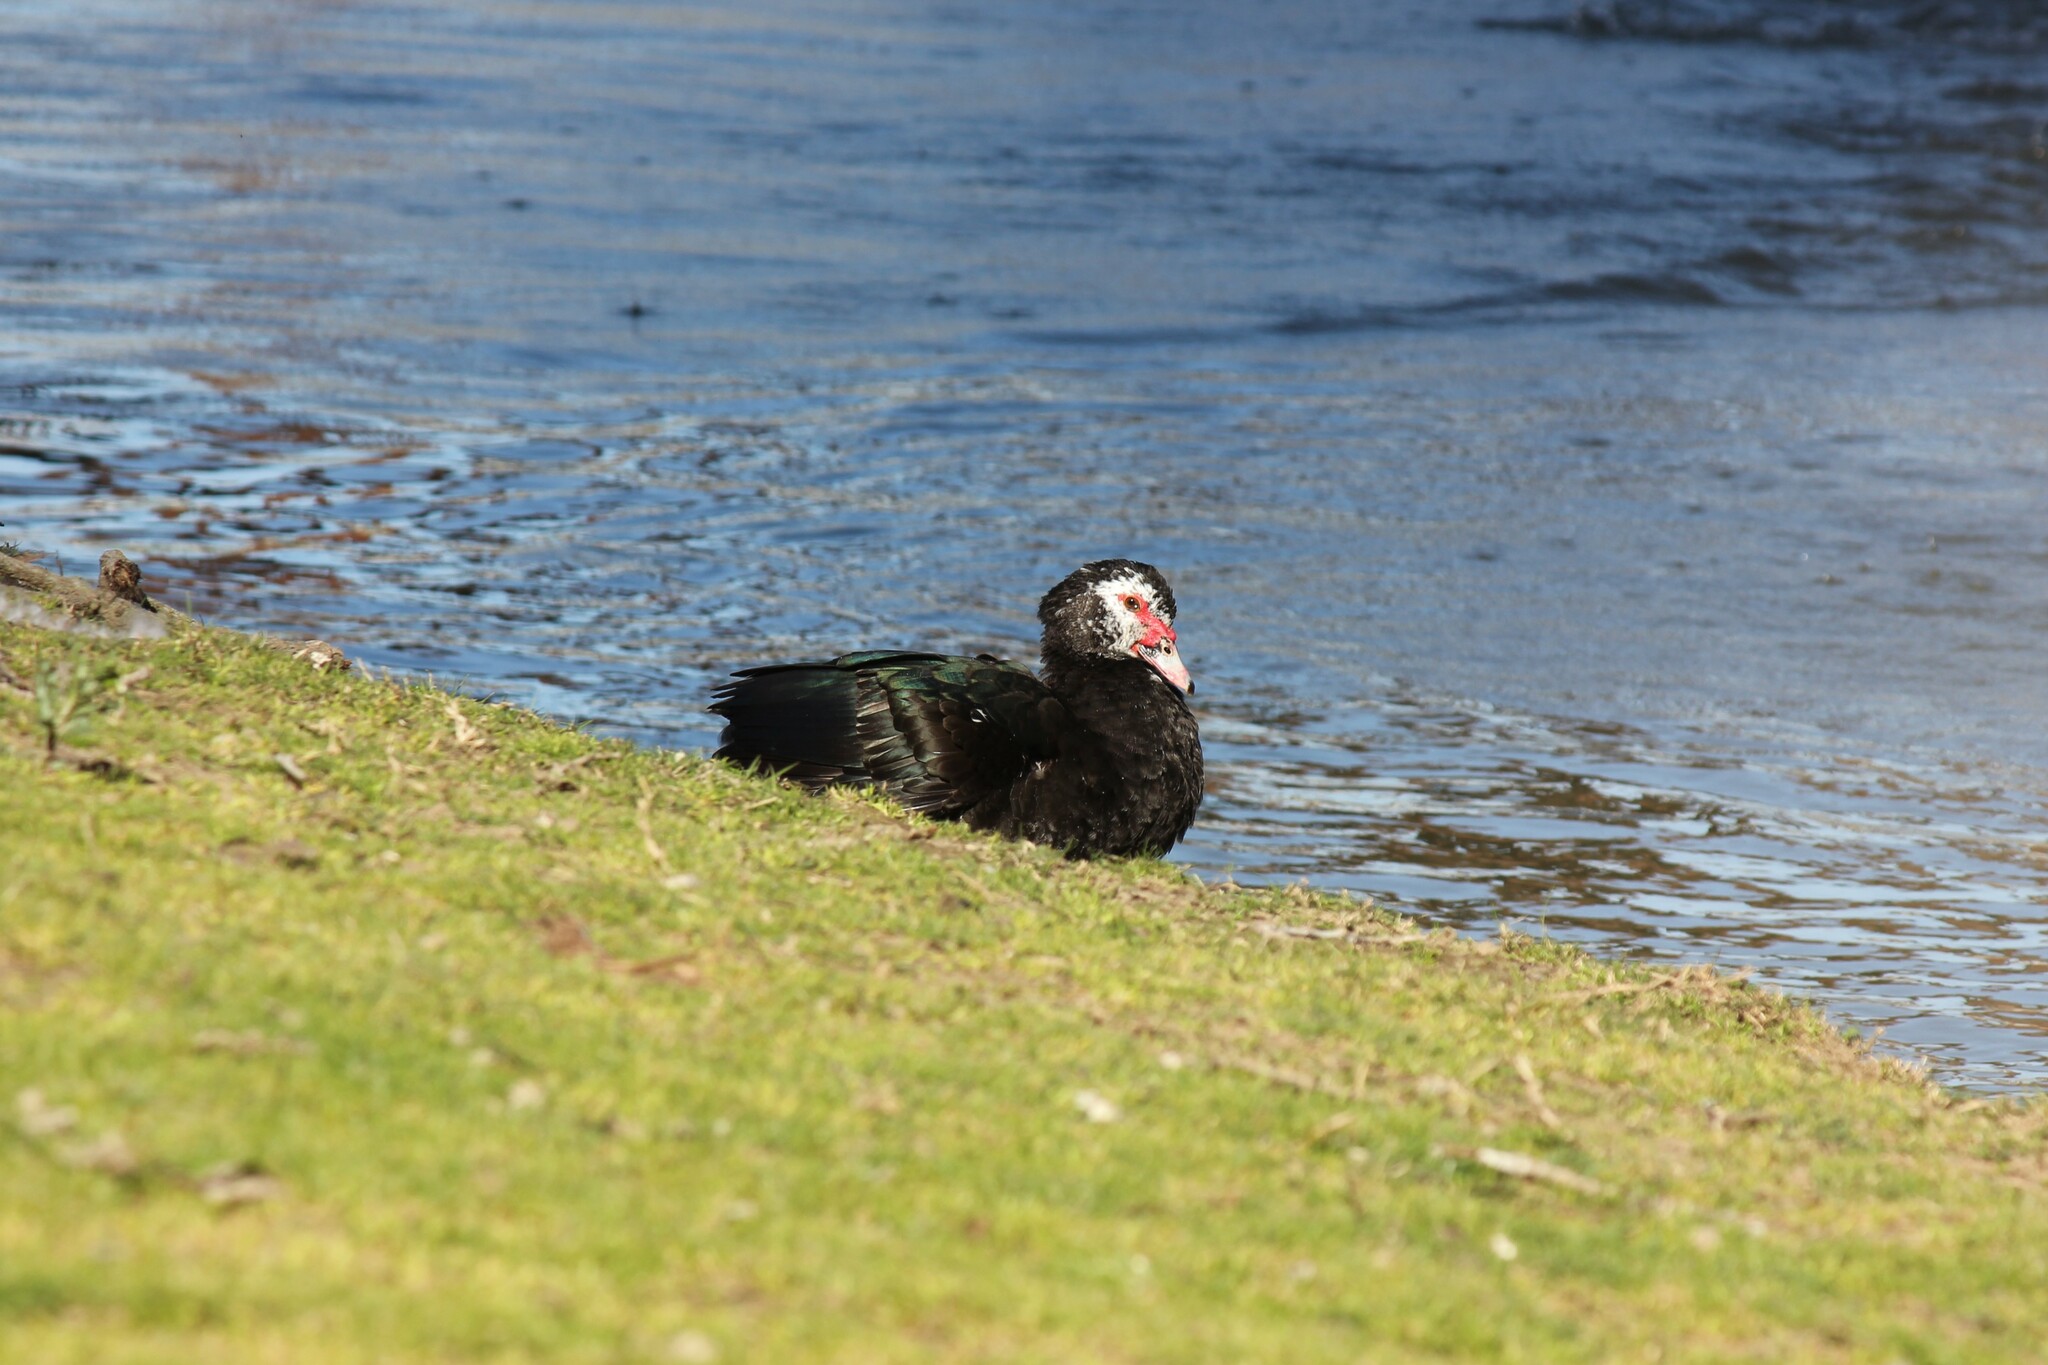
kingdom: Animalia
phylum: Chordata
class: Aves
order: Anseriformes
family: Anatidae
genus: Cairina
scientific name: Cairina moschata
